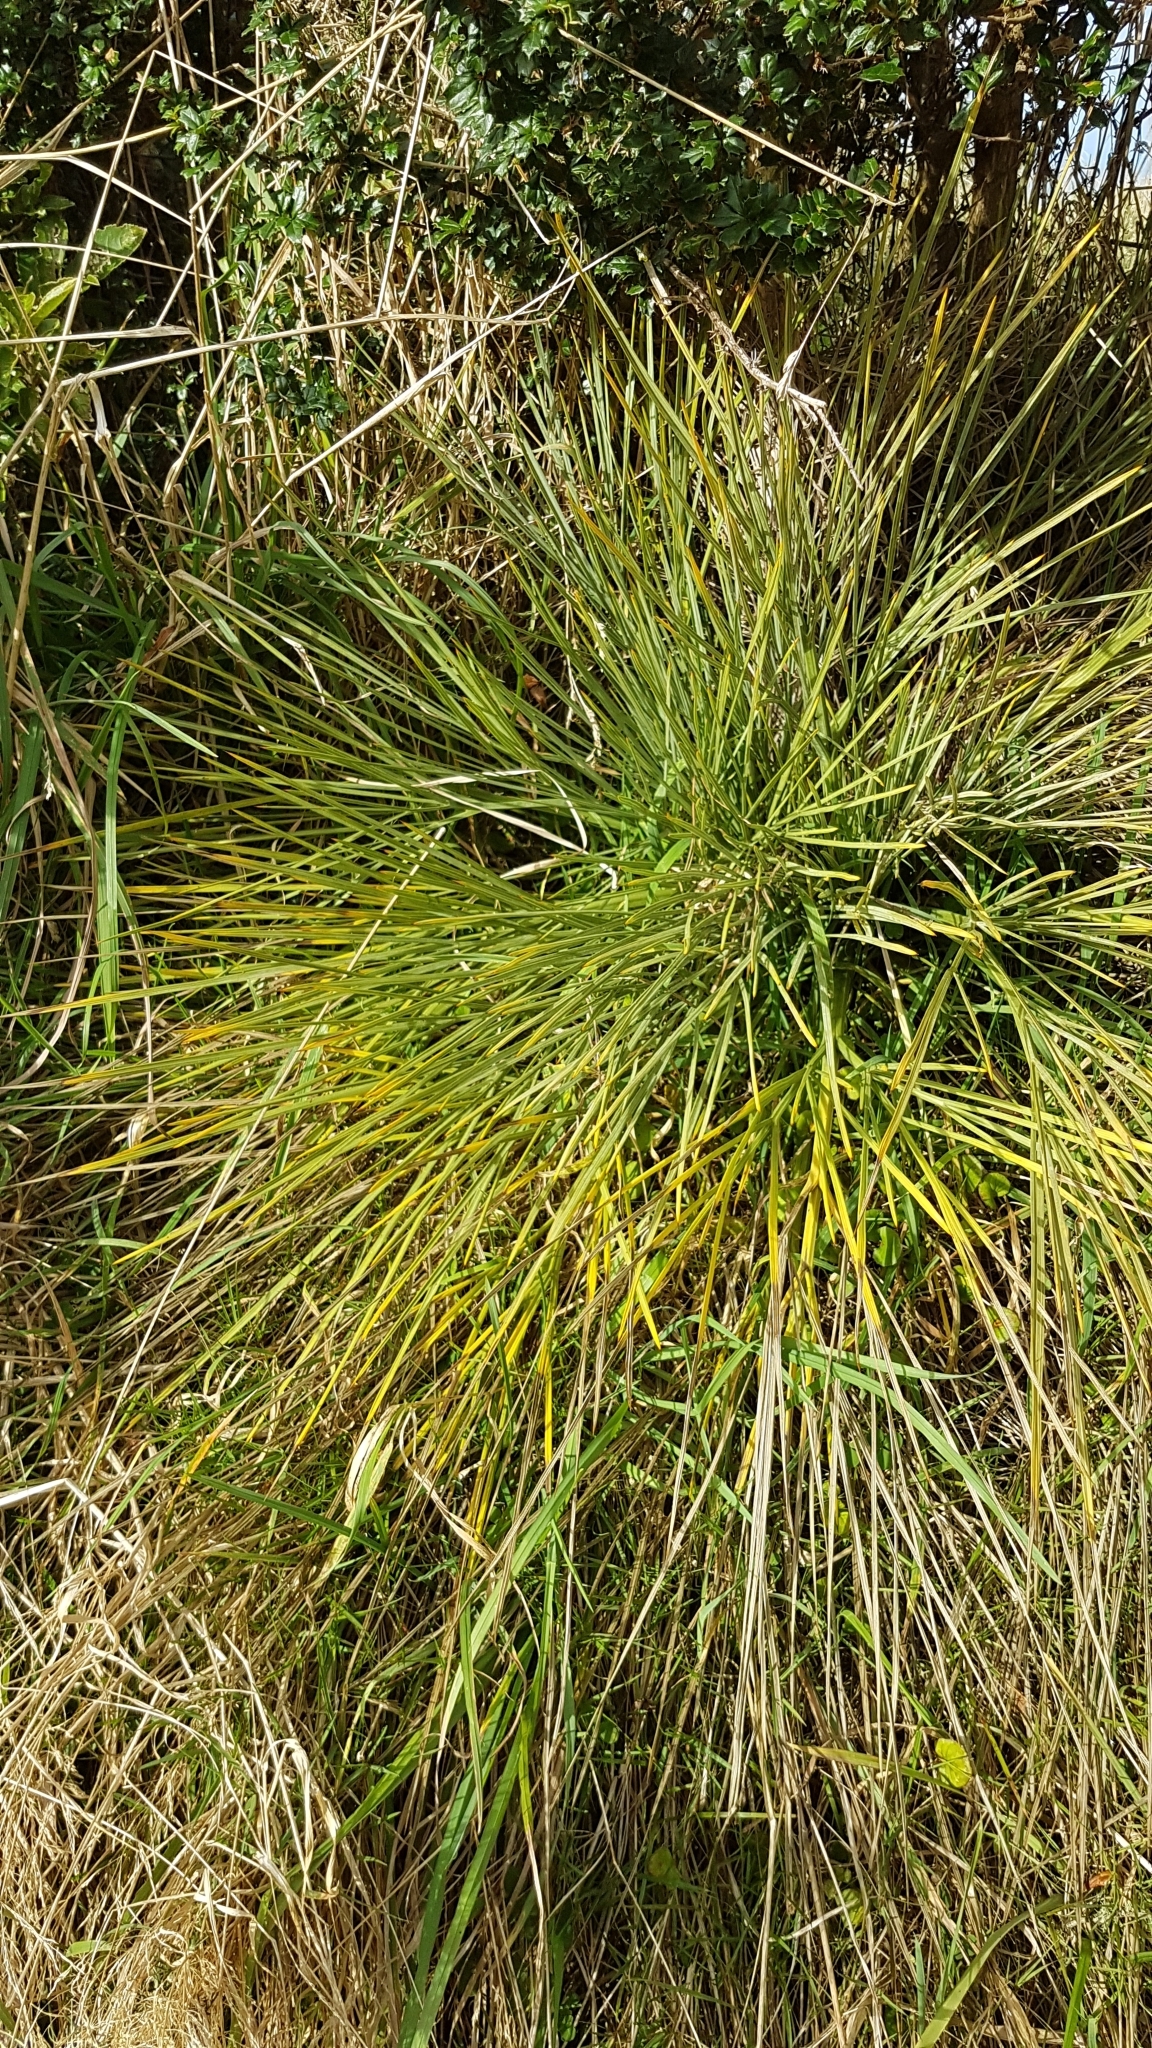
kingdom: Plantae
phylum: Tracheophyta
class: Magnoliopsida
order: Apiales
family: Apiaceae
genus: Aciphylla
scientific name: Aciphylla squarrosa
